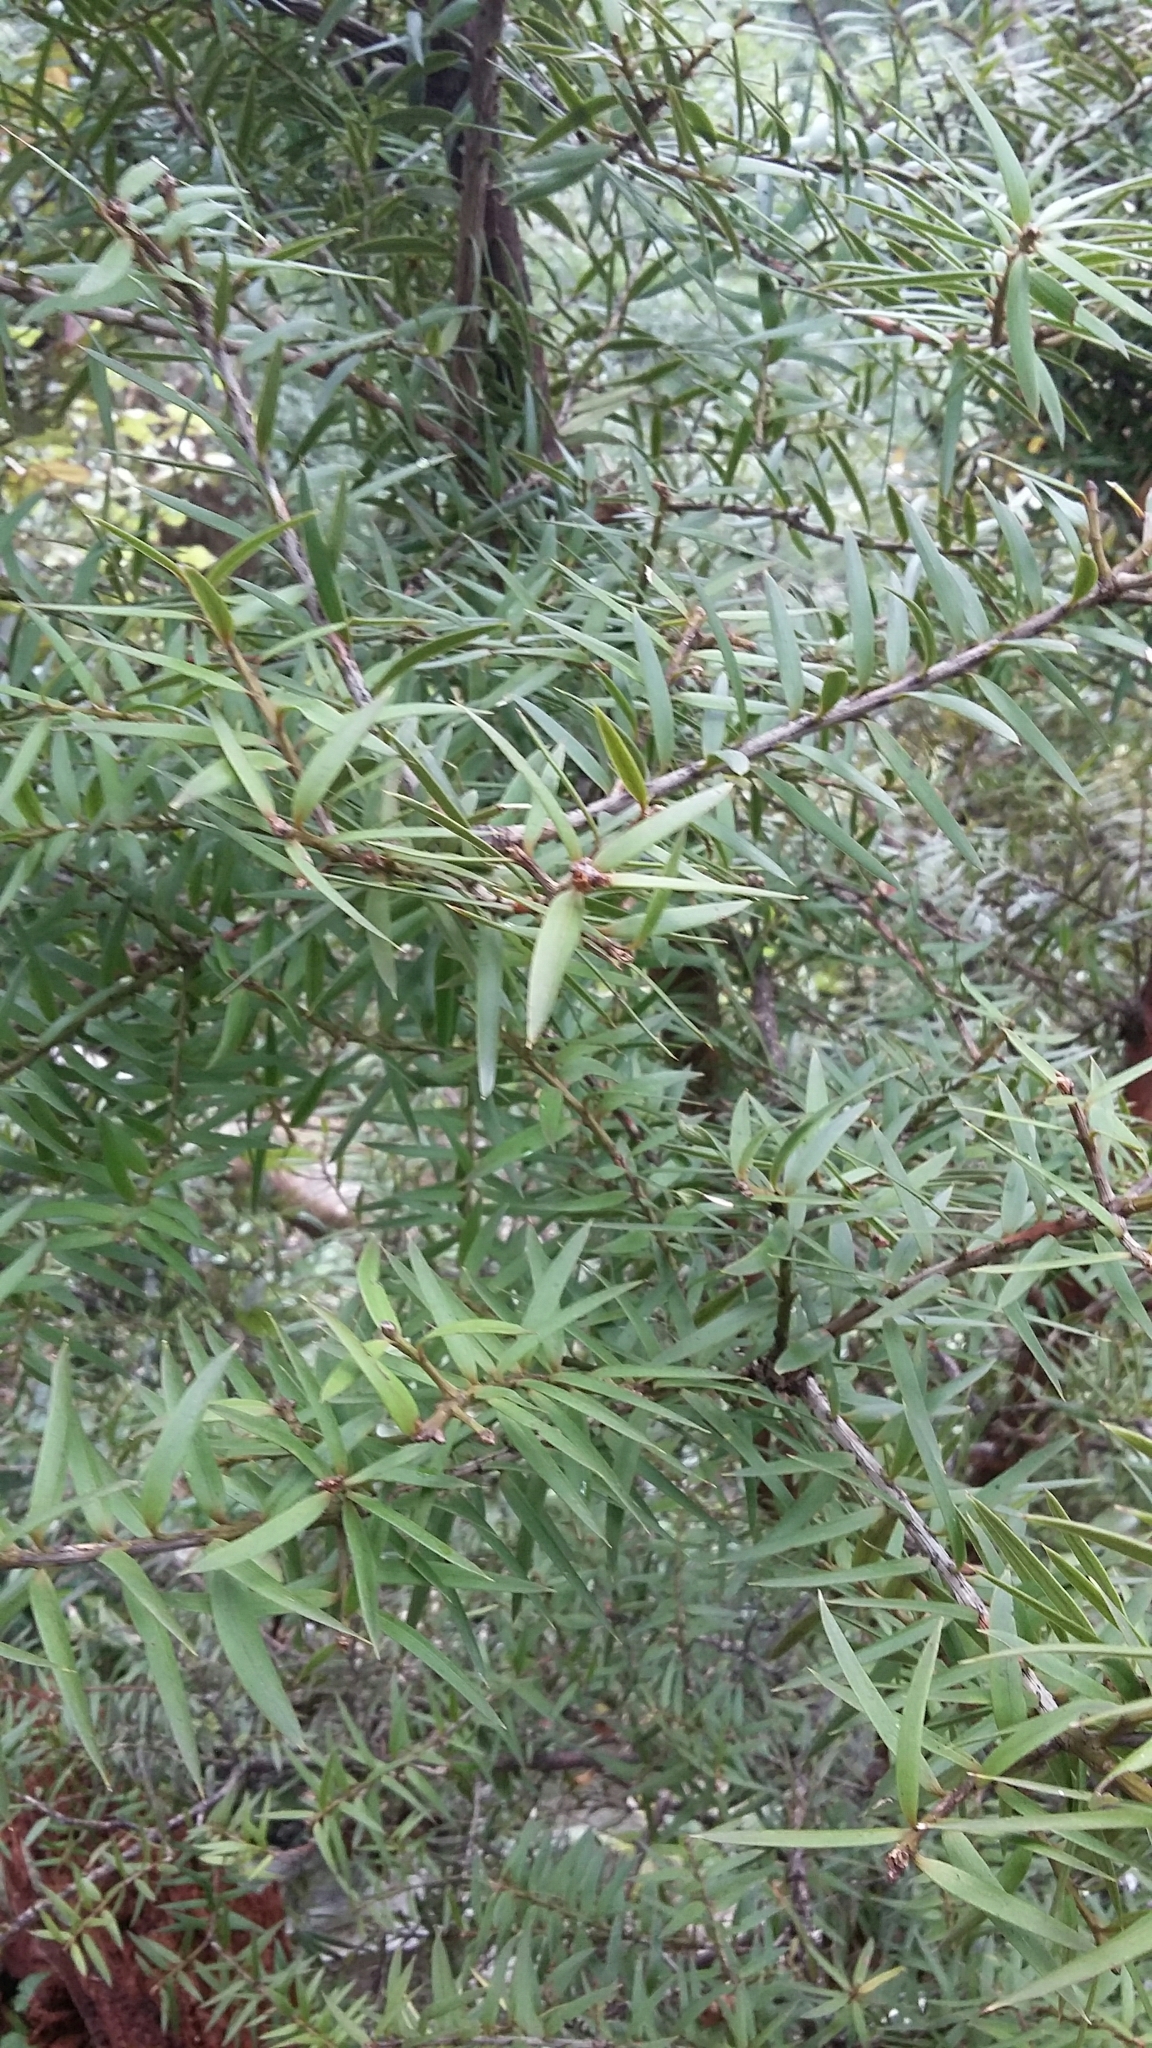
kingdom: Plantae
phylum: Tracheophyta
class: Pinopsida
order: Pinales
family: Podocarpaceae
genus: Podocarpus
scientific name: Podocarpus totara
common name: Totara
